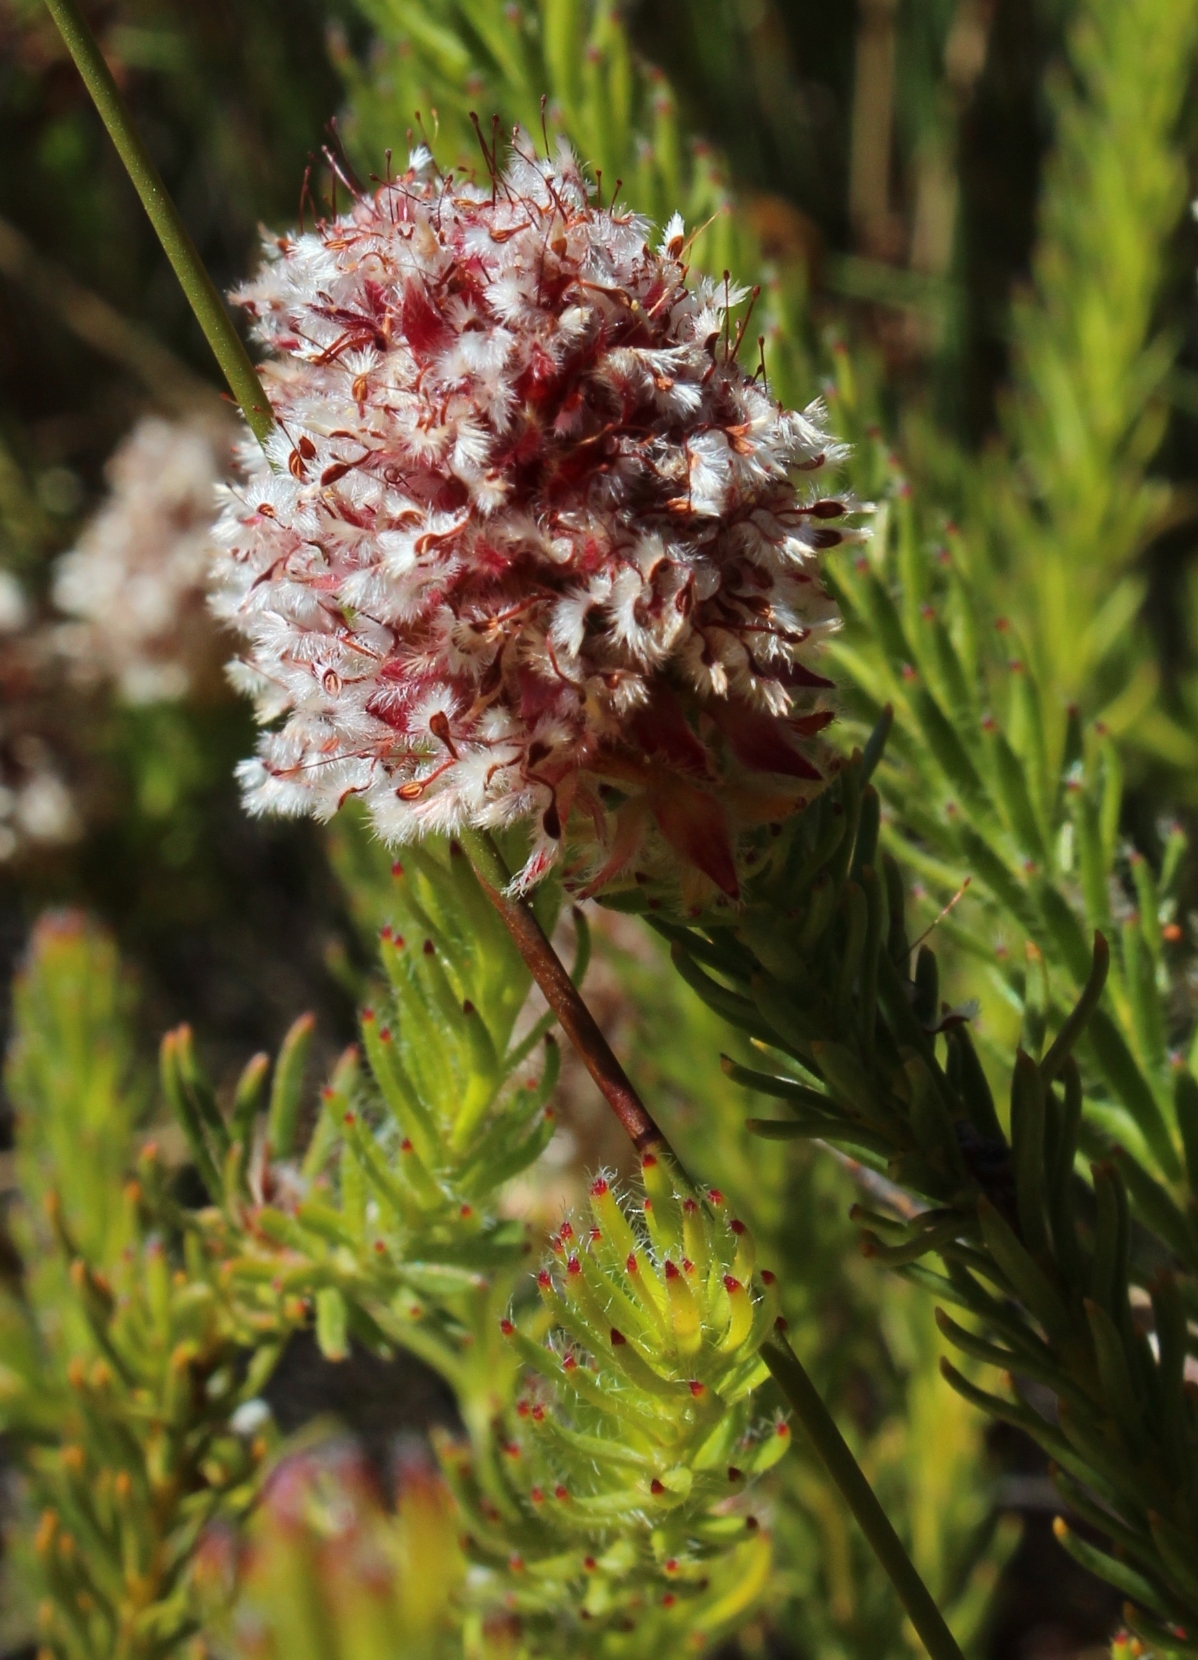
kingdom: Plantae
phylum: Tracheophyta
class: Magnoliopsida
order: Proteales
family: Proteaceae
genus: Sorocephalus
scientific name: Sorocephalus lanatus
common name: Common clusterhead
